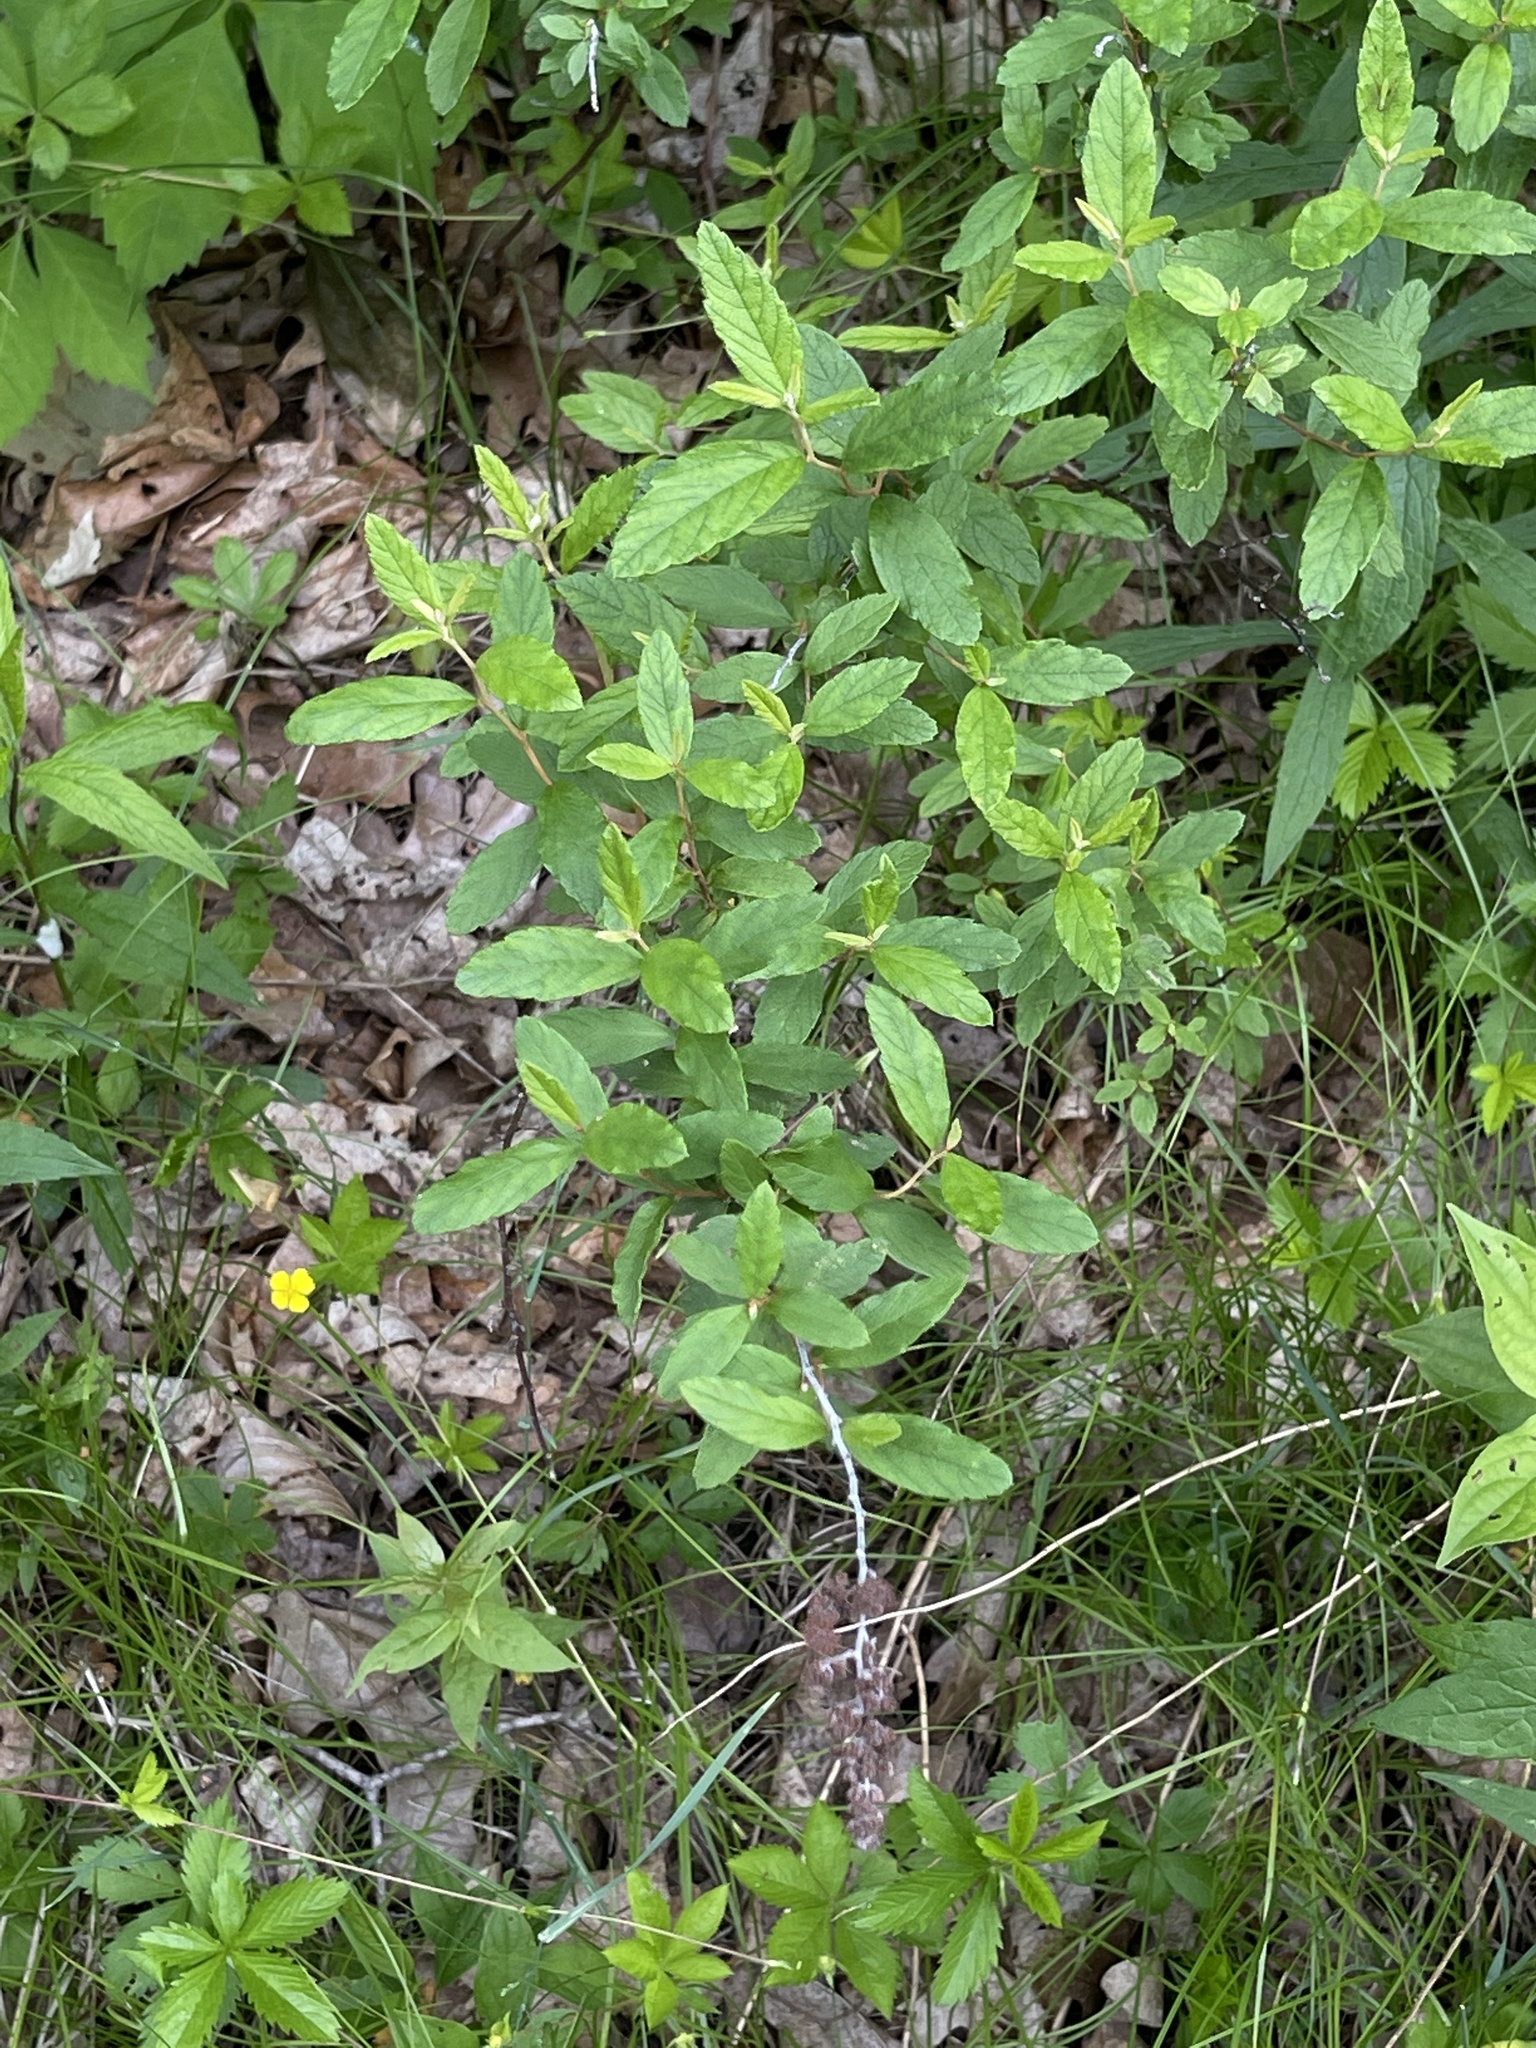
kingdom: Plantae
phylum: Tracheophyta
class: Magnoliopsida
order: Rosales
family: Rosaceae
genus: Spiraea
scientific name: Spiraea tomentosa
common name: Hardhack
